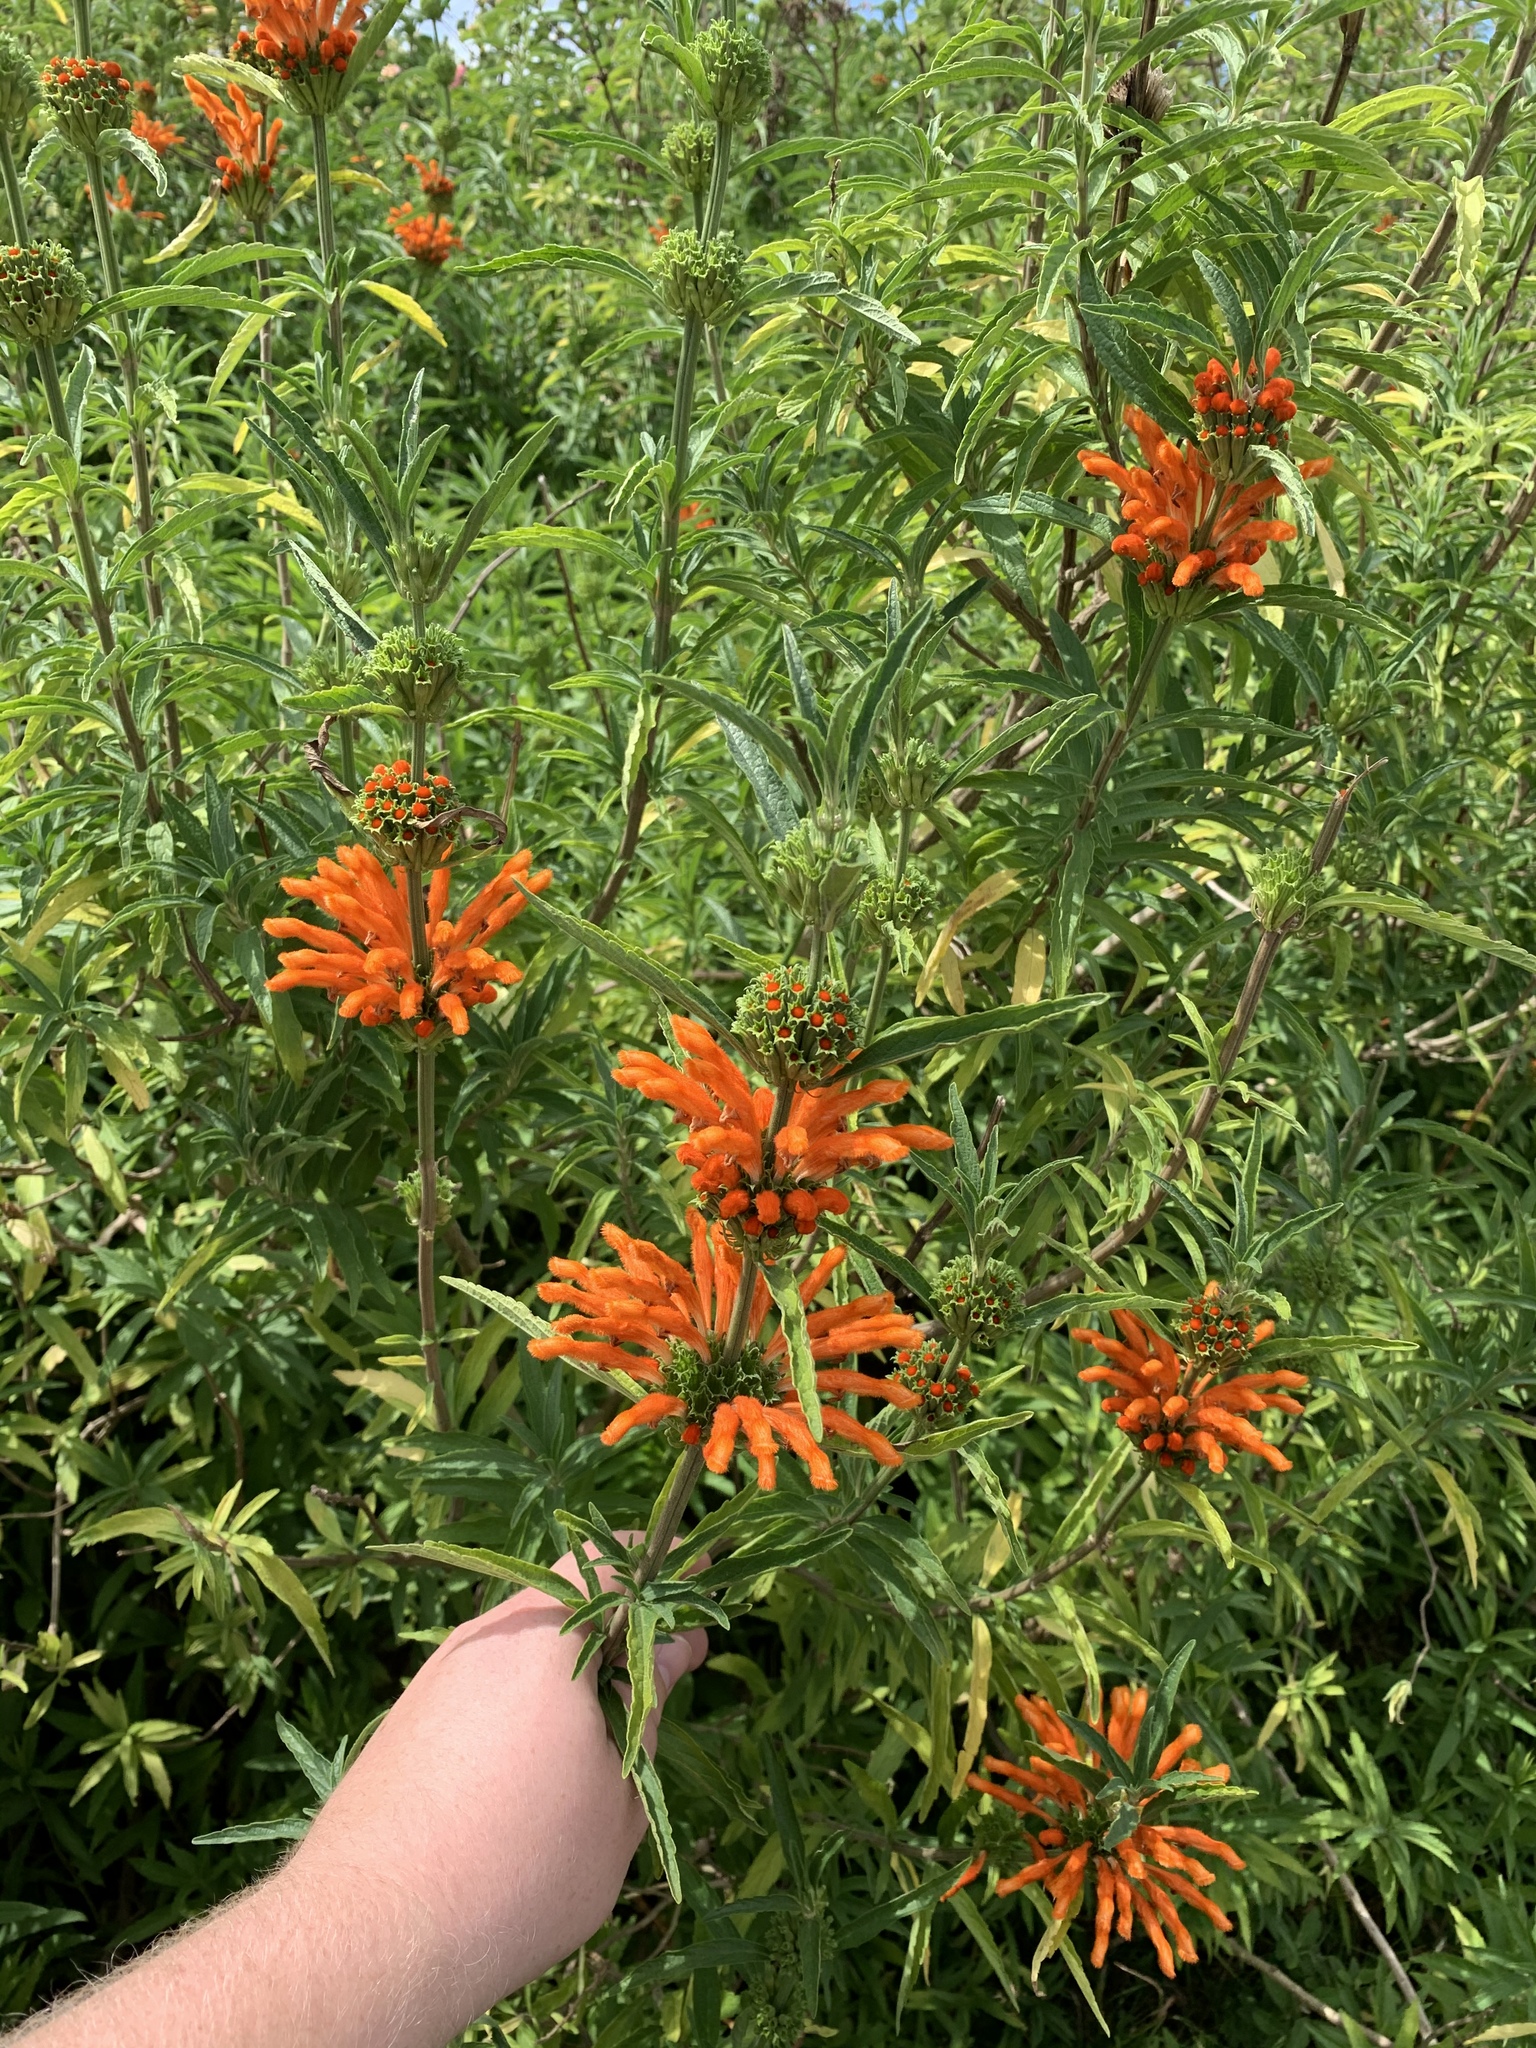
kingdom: Plantae
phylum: Tracheophyta
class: Magnoliopsida
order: Lamiales
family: Lamiaceae
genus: Leonotis
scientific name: Leonotis leonurus
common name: Lion's ear
